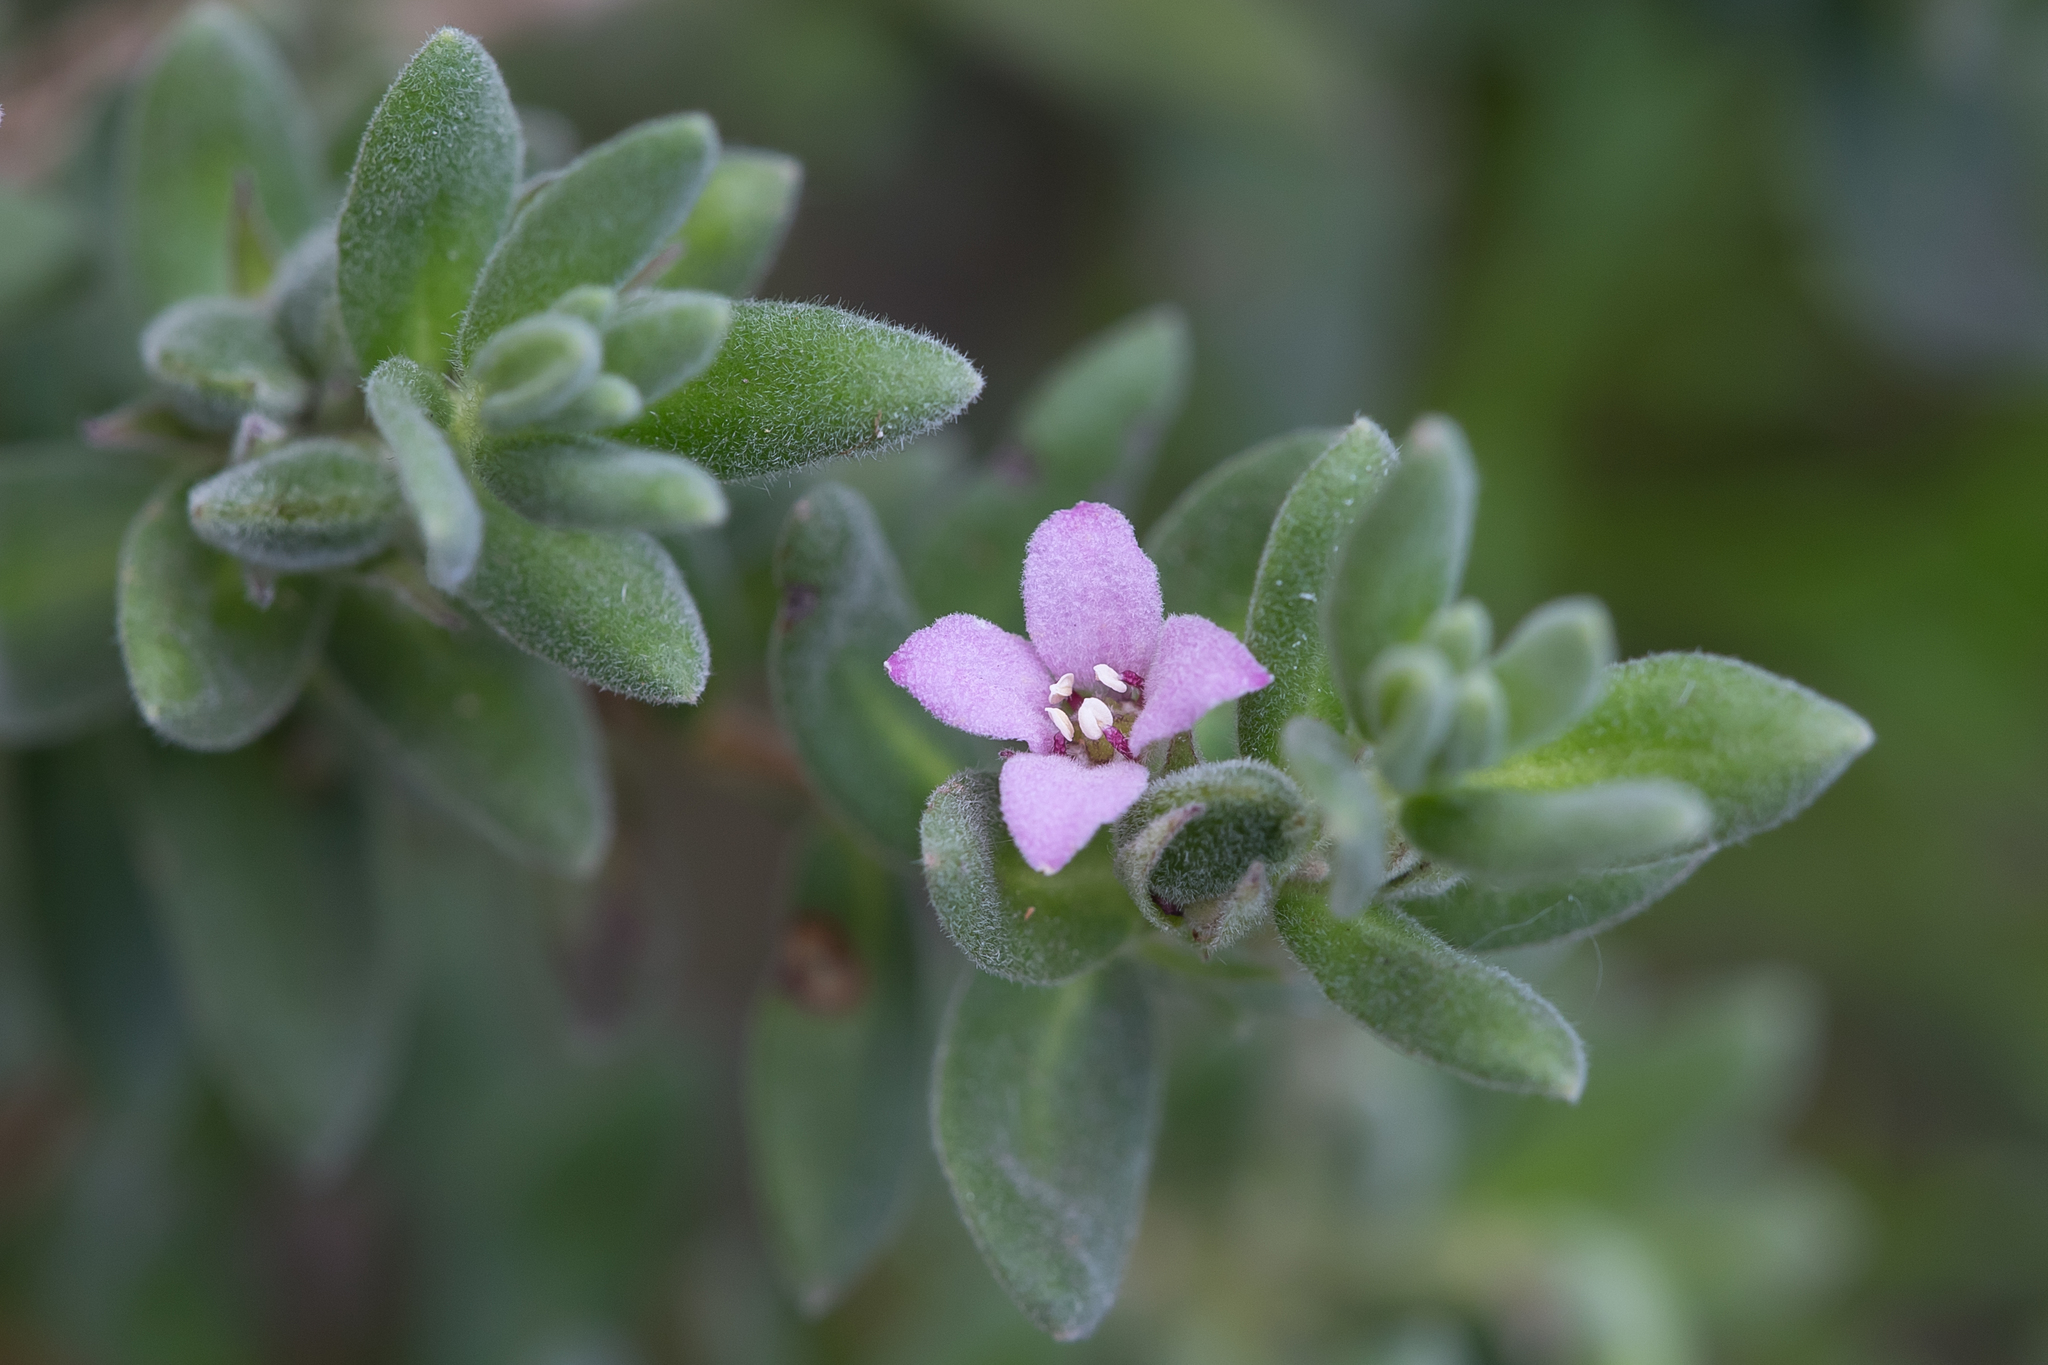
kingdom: Plantae
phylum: Tracheophyta
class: Magnoliopsida
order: Sapindales
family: Rutaceae
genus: Zieria
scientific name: Zieria veronicea
